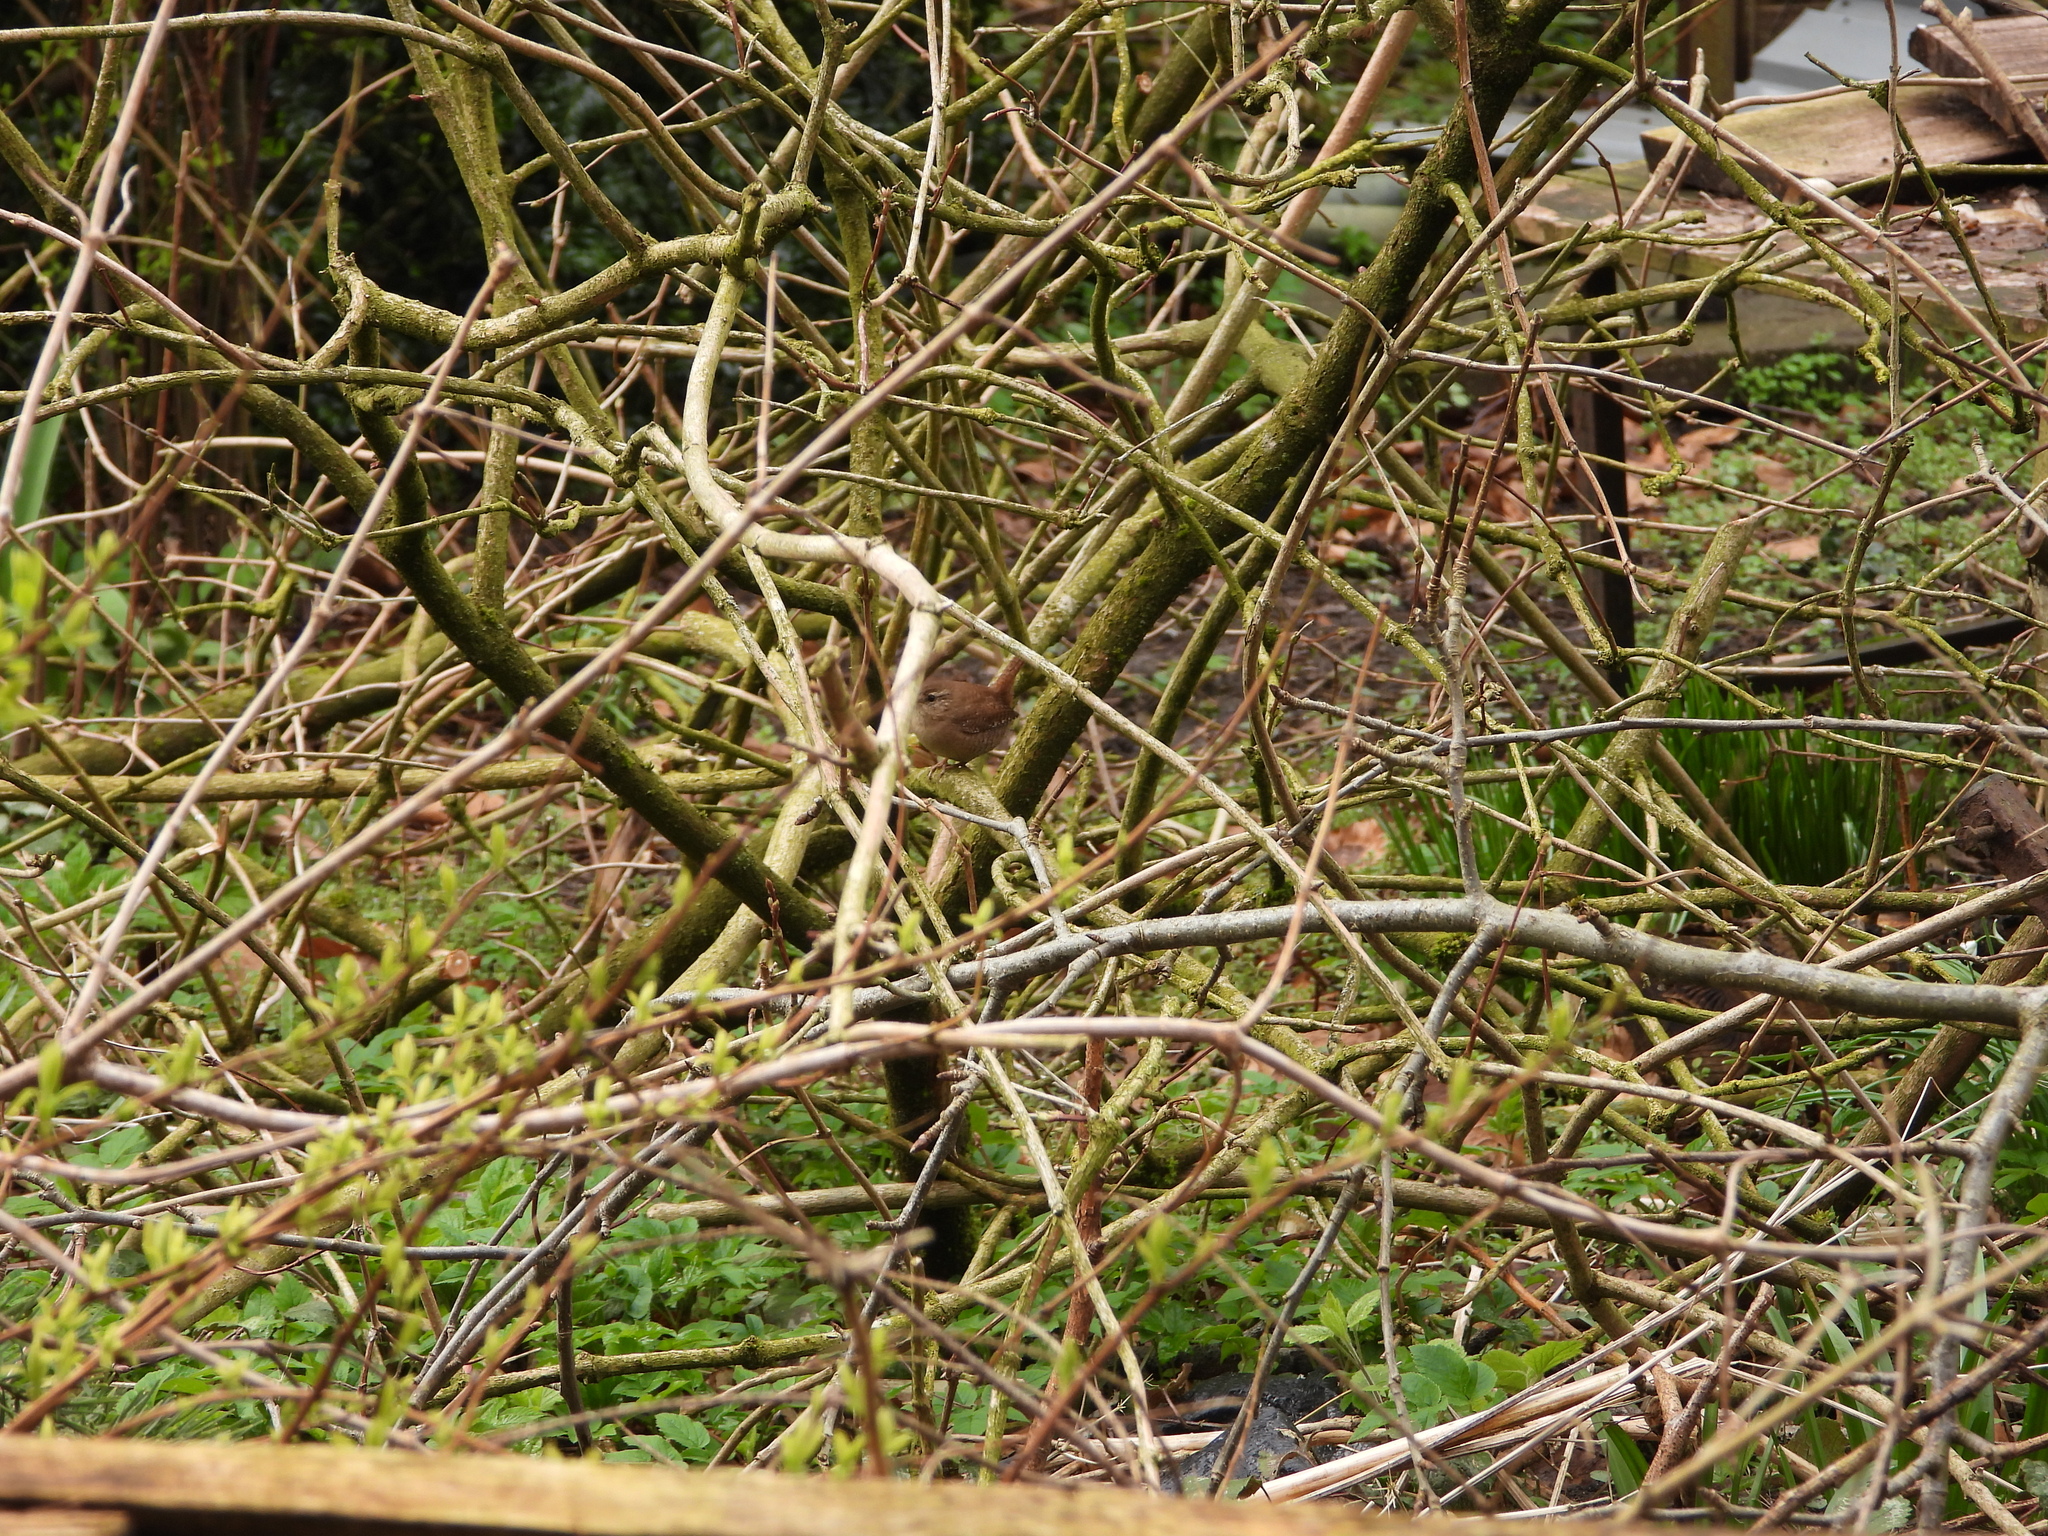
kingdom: Animalia
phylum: Chordata
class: Aves
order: Passeriformes
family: Troglodytidae
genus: Troglodytes
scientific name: Troglodytes troglodytes
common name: Eurasian wren
